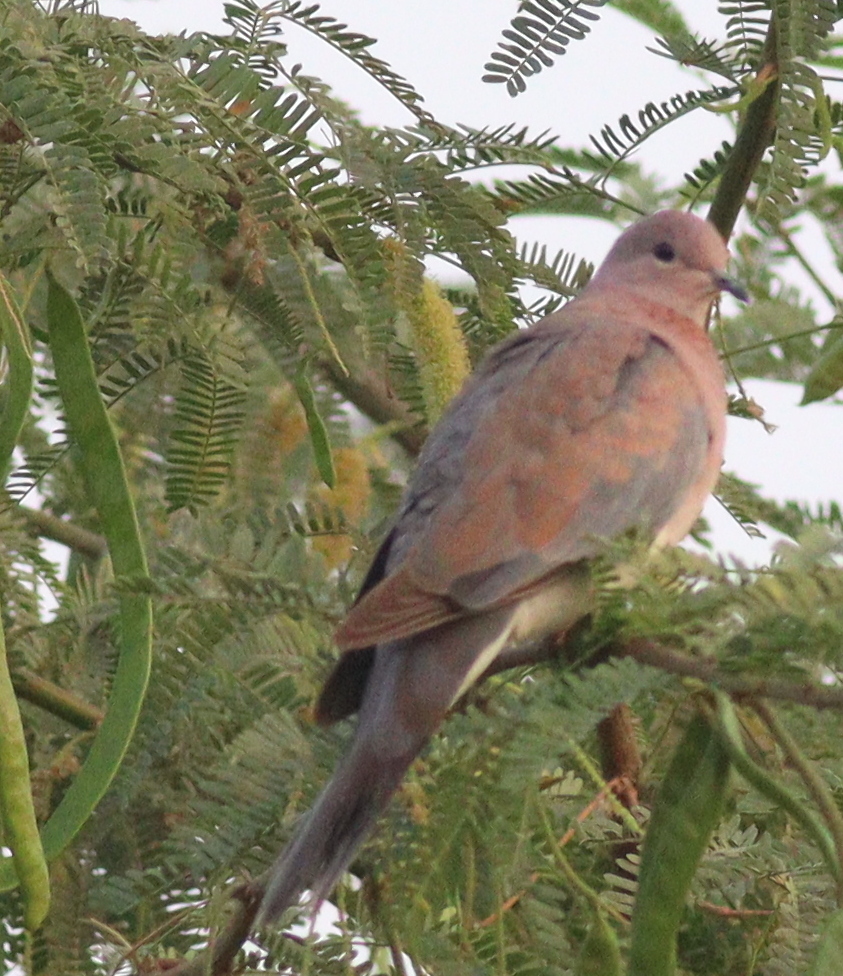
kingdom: Animalia
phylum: Chordata
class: Aves
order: Columbiformes
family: Columbidae
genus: Spilopelia
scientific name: Spilopelia senegalensis
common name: Laughing dove
